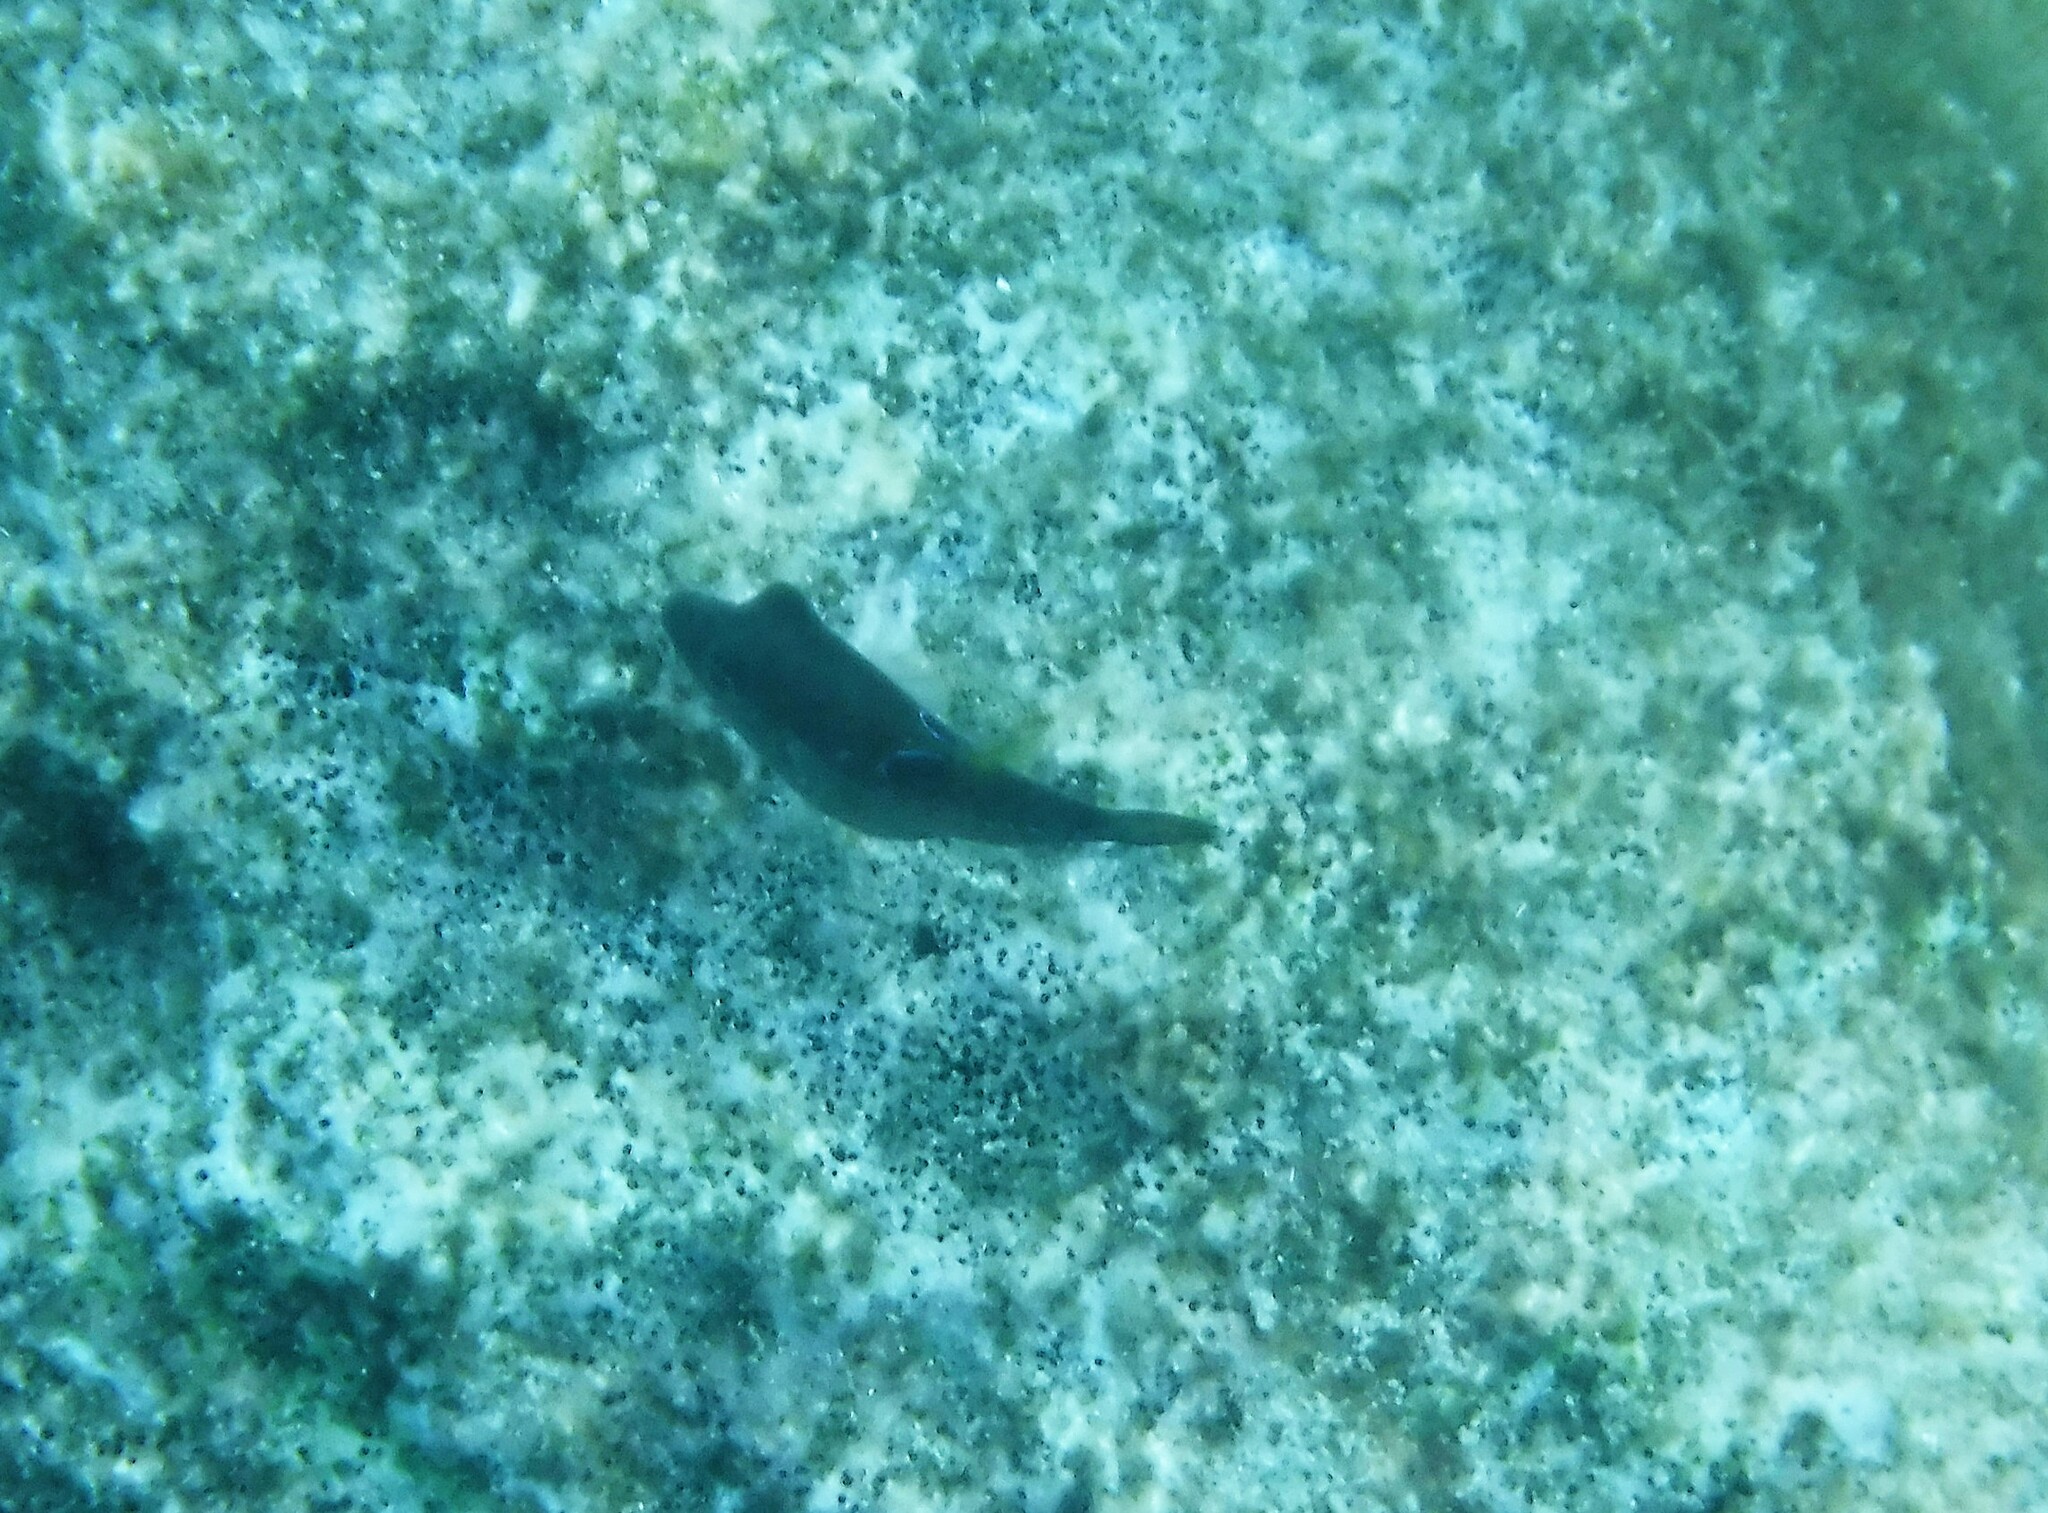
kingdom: Animalia
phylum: Chordata
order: Tetraodontiformes
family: Tetraodontidae
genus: Canthigaster
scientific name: Canthigaster rostrata
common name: Caribbean sharpnose-puffer
